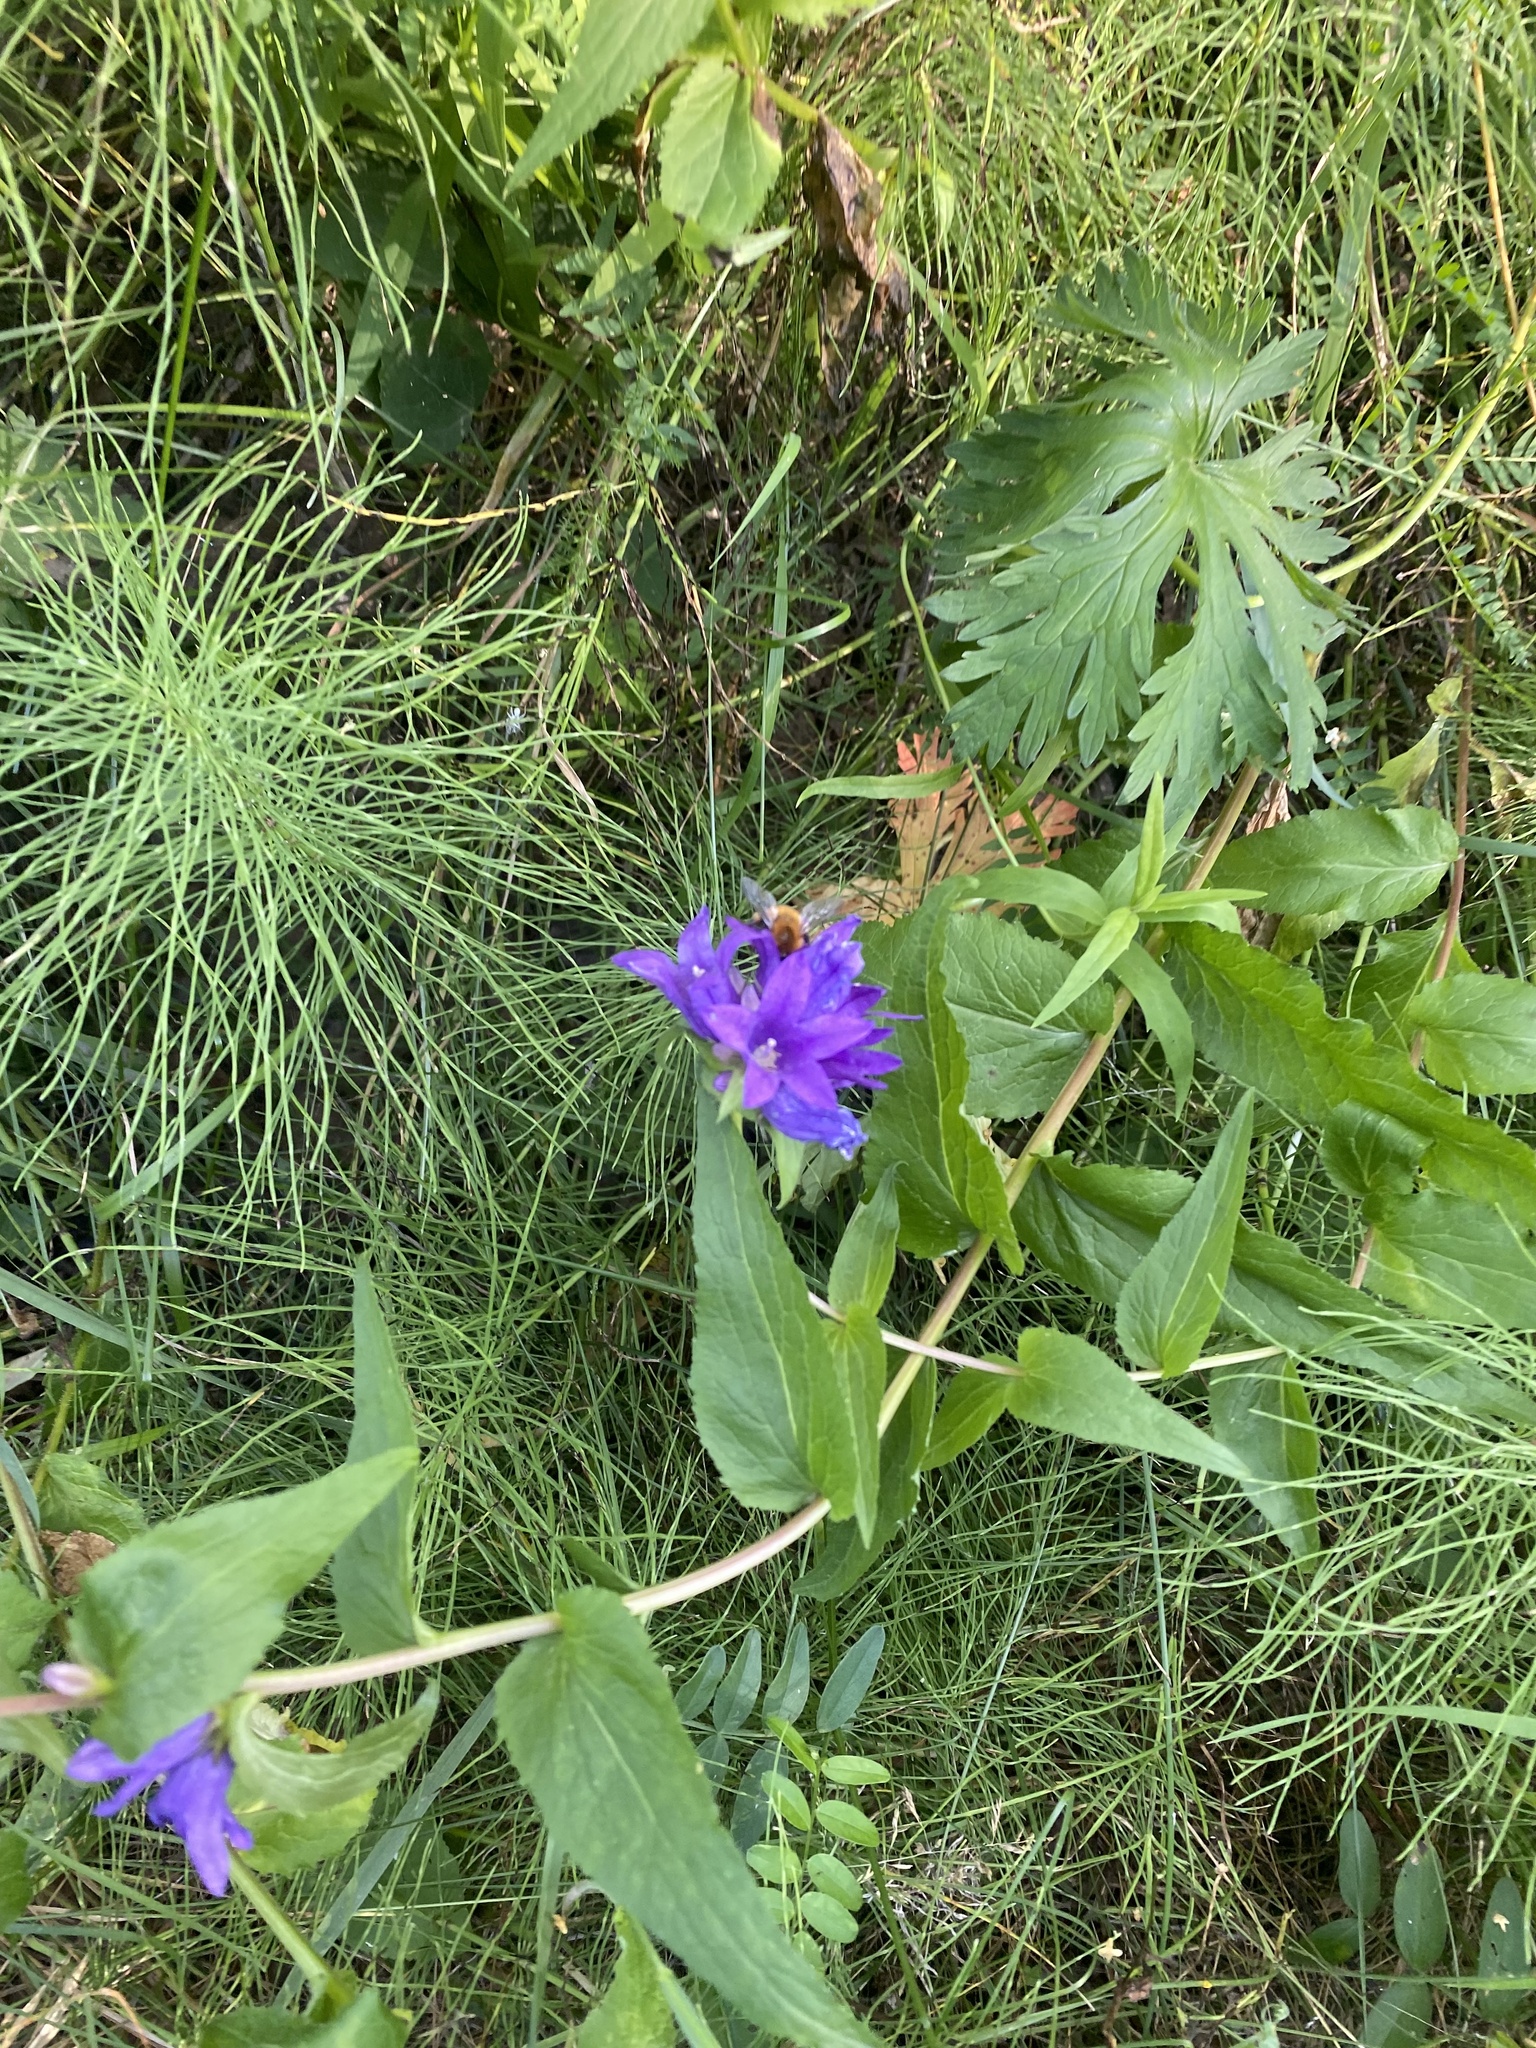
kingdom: Plantae
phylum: Tracheophyta
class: Magnoliopsida
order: Asterales
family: Campanulaceae
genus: Campanula
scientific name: Campanula glomerata
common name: Clustered bellflower
